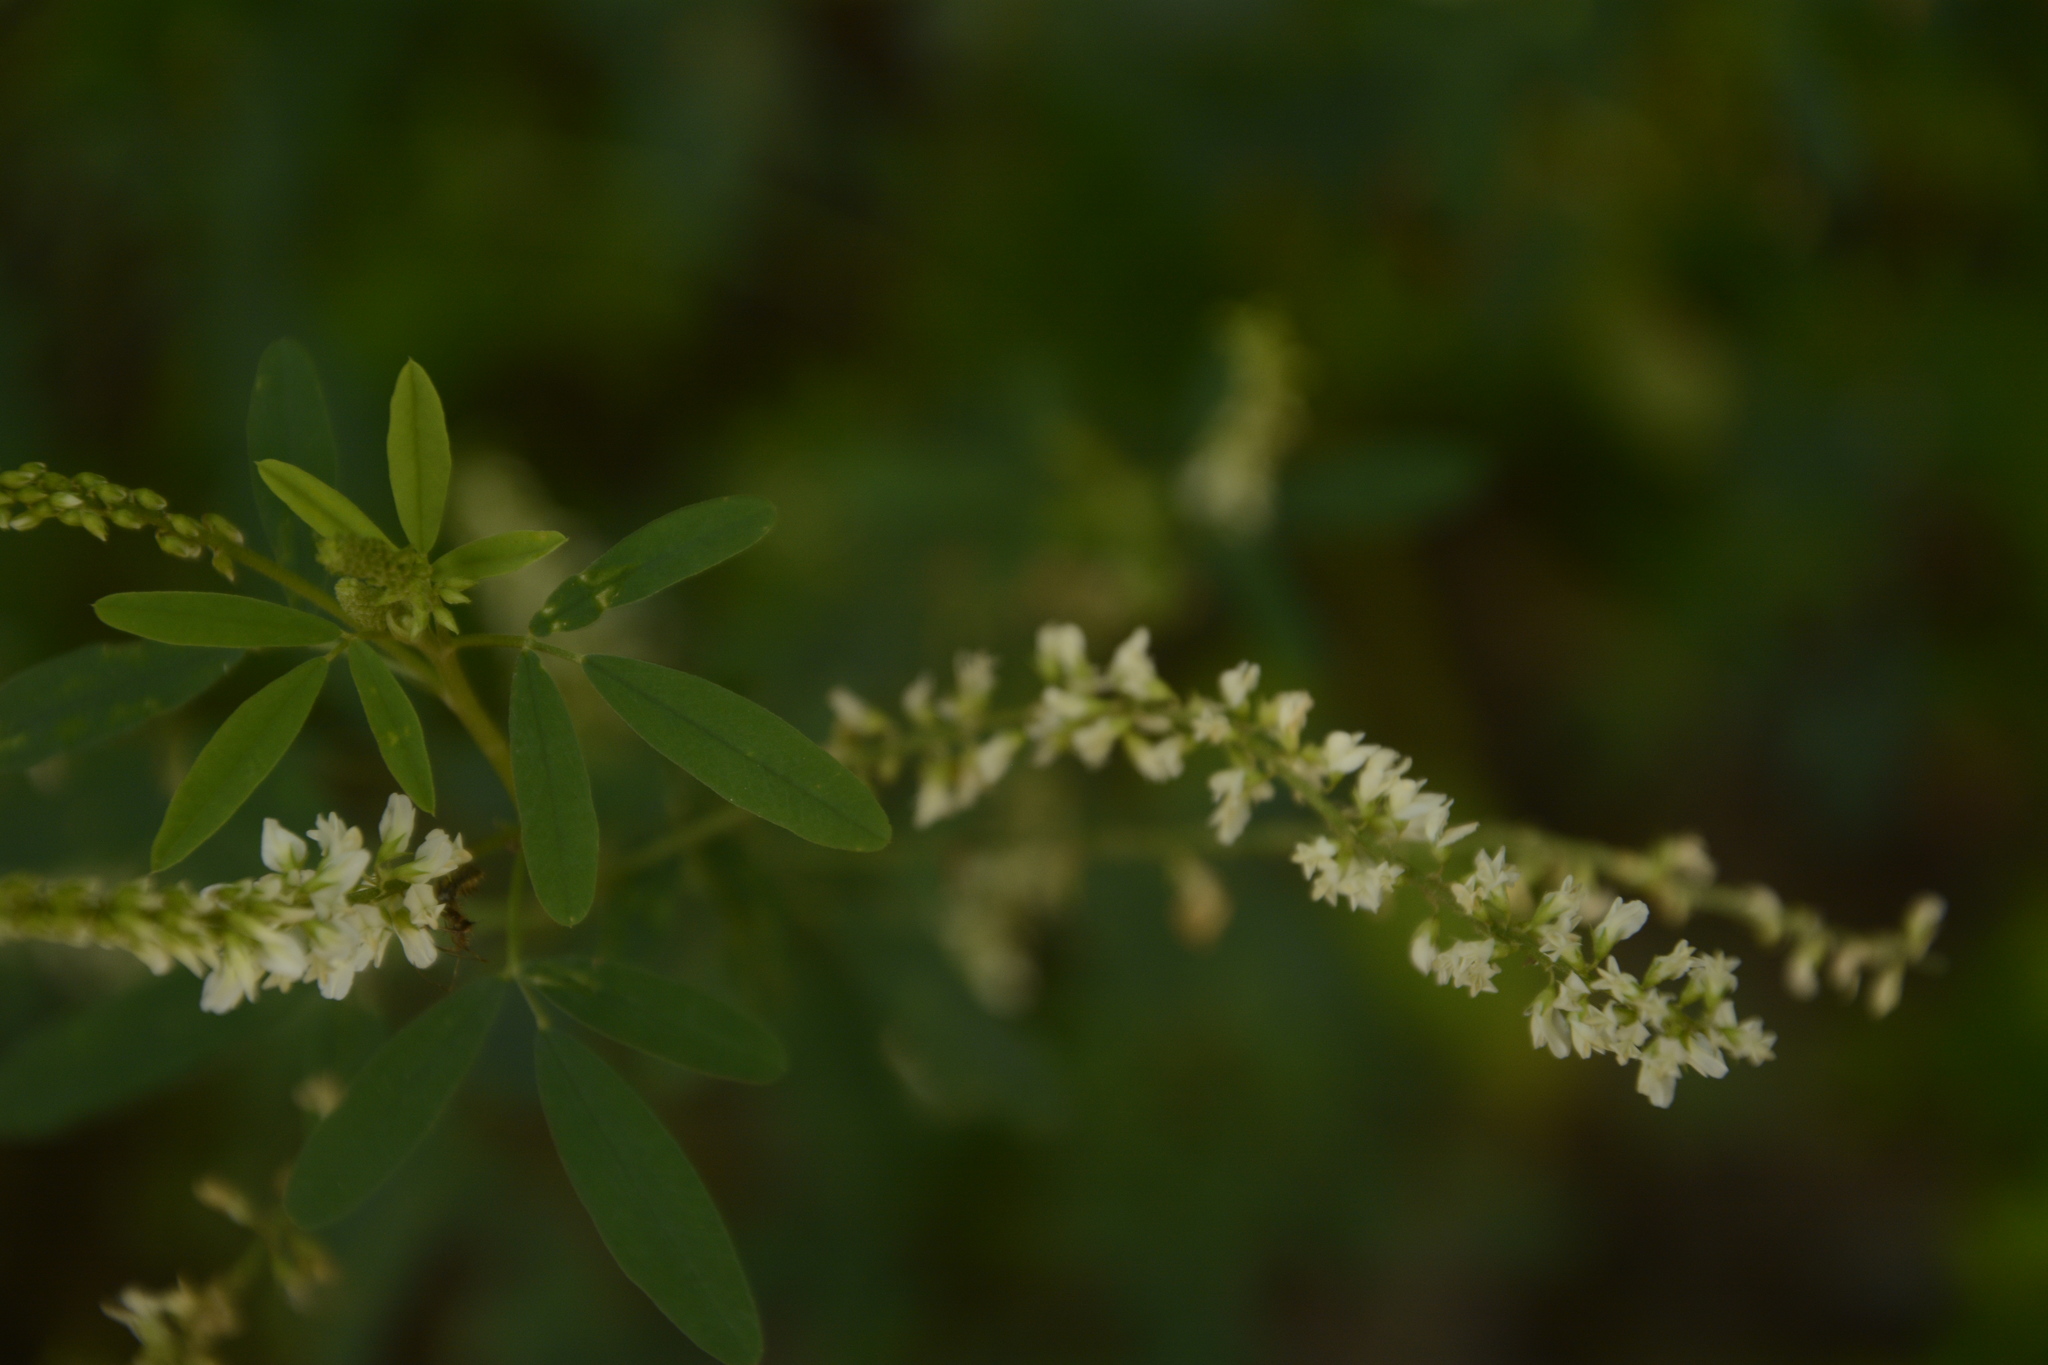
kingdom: Plantae
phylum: Tracheophyta
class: Magnoliopsida
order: Fabales
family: Fabaceae
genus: Melilotus
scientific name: Melilotus albus
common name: White melilot
